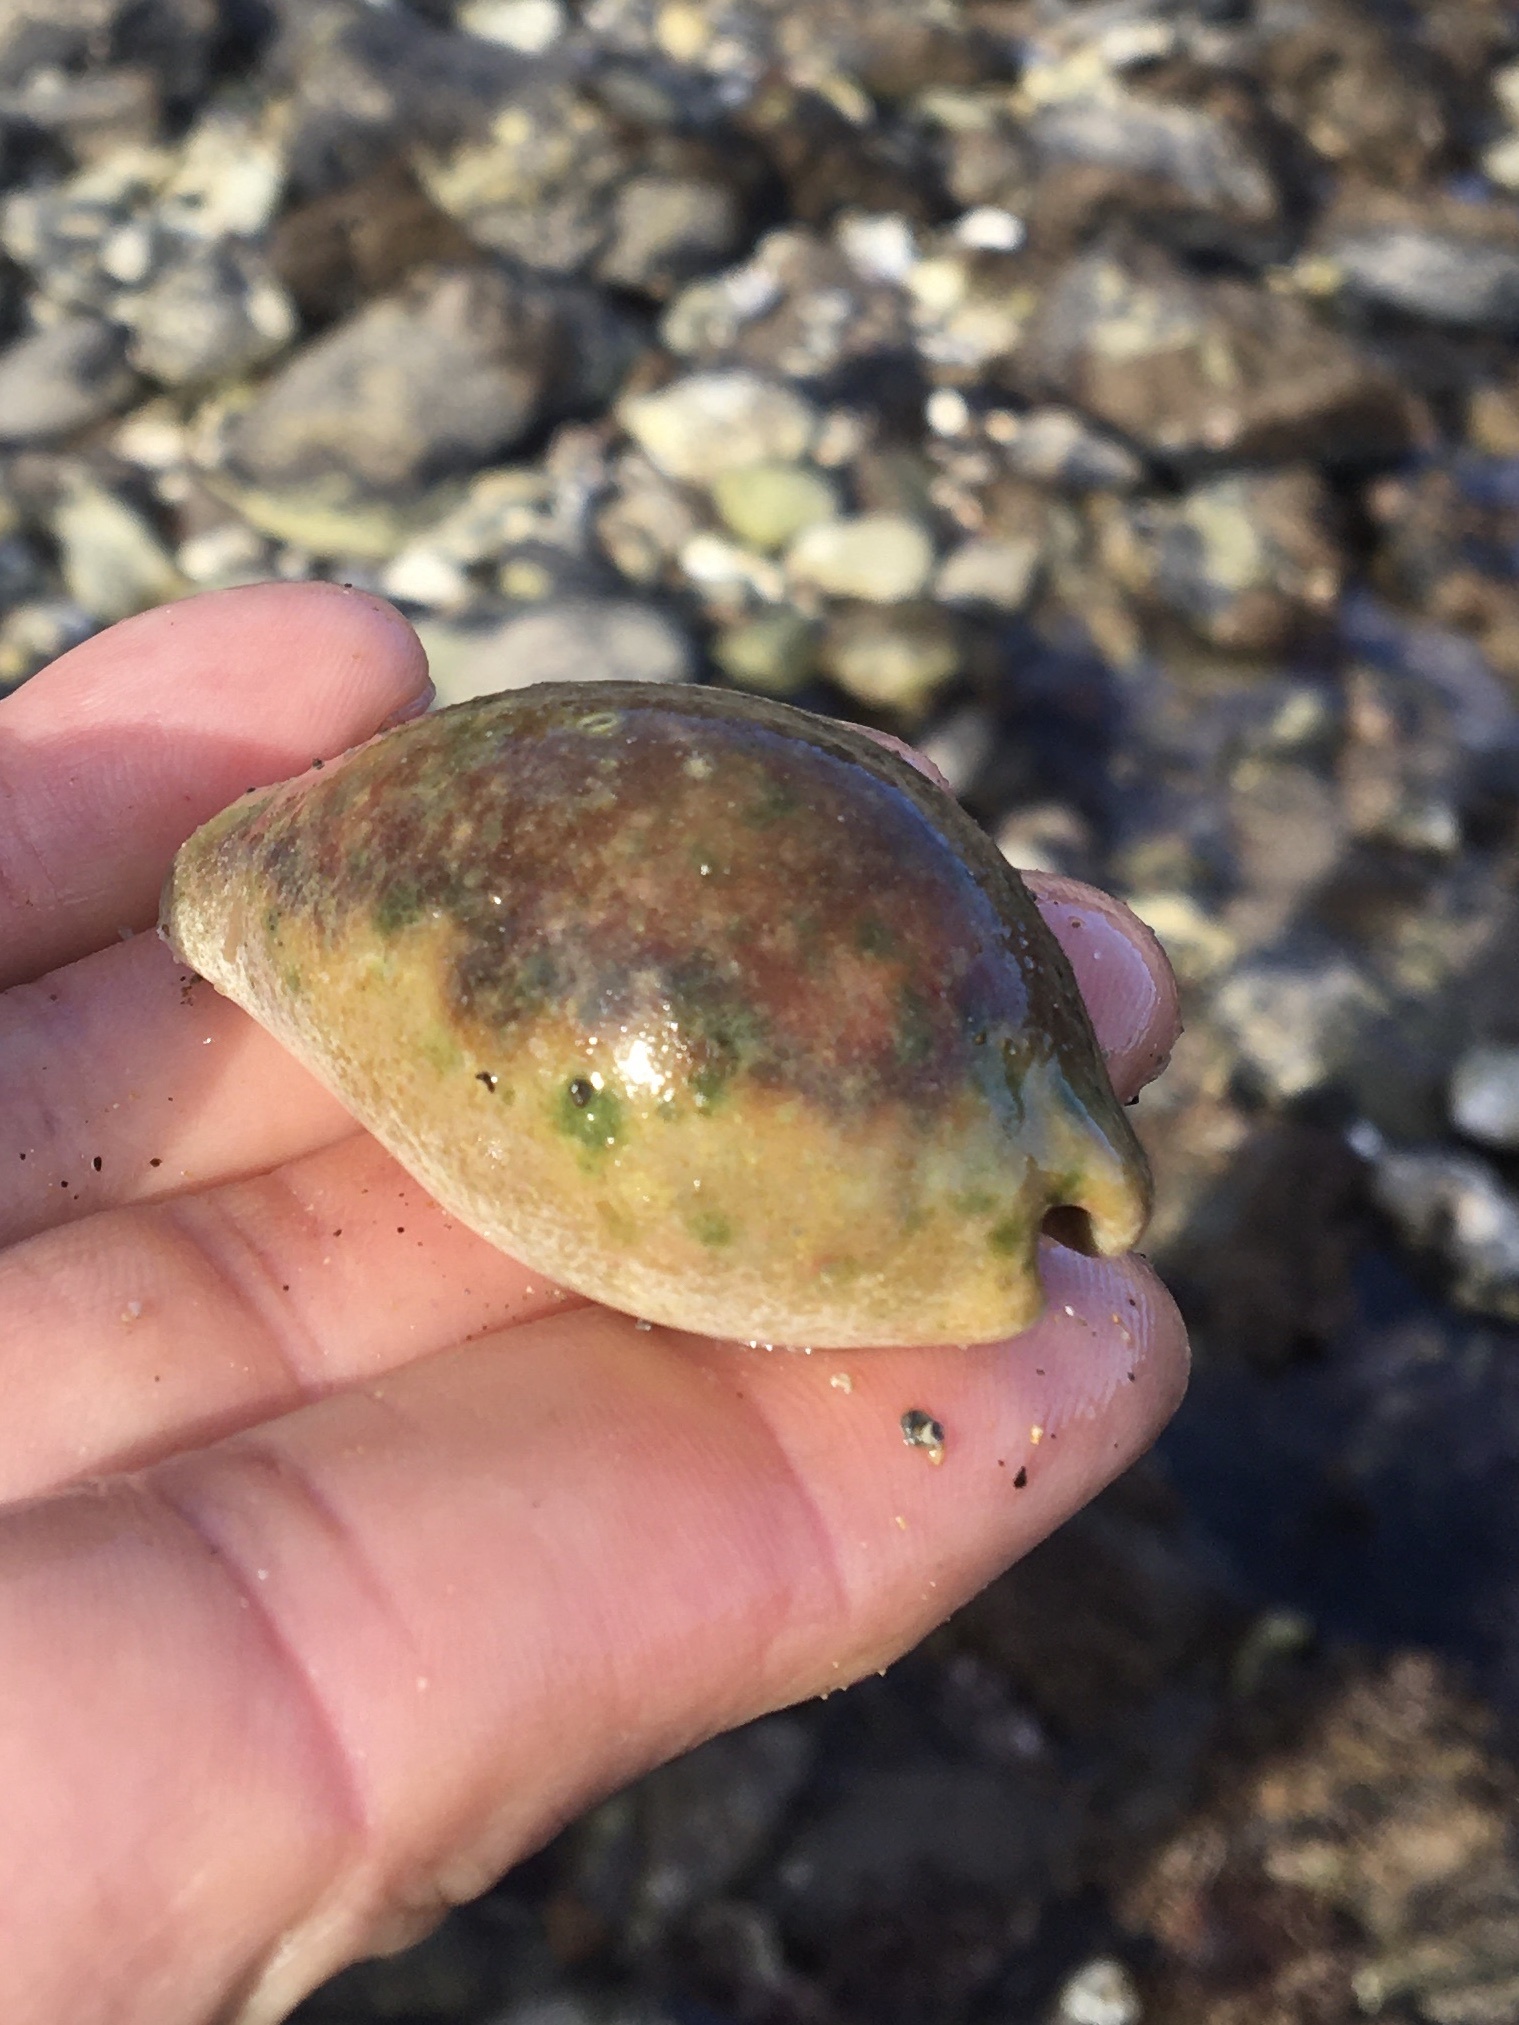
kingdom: Animalia
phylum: Mollusca
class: Gastropoda
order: Littorinimorpha
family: Cypraeidae
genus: Neobernaya
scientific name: Neobernaya spadicea
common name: Chestnut cowrie
